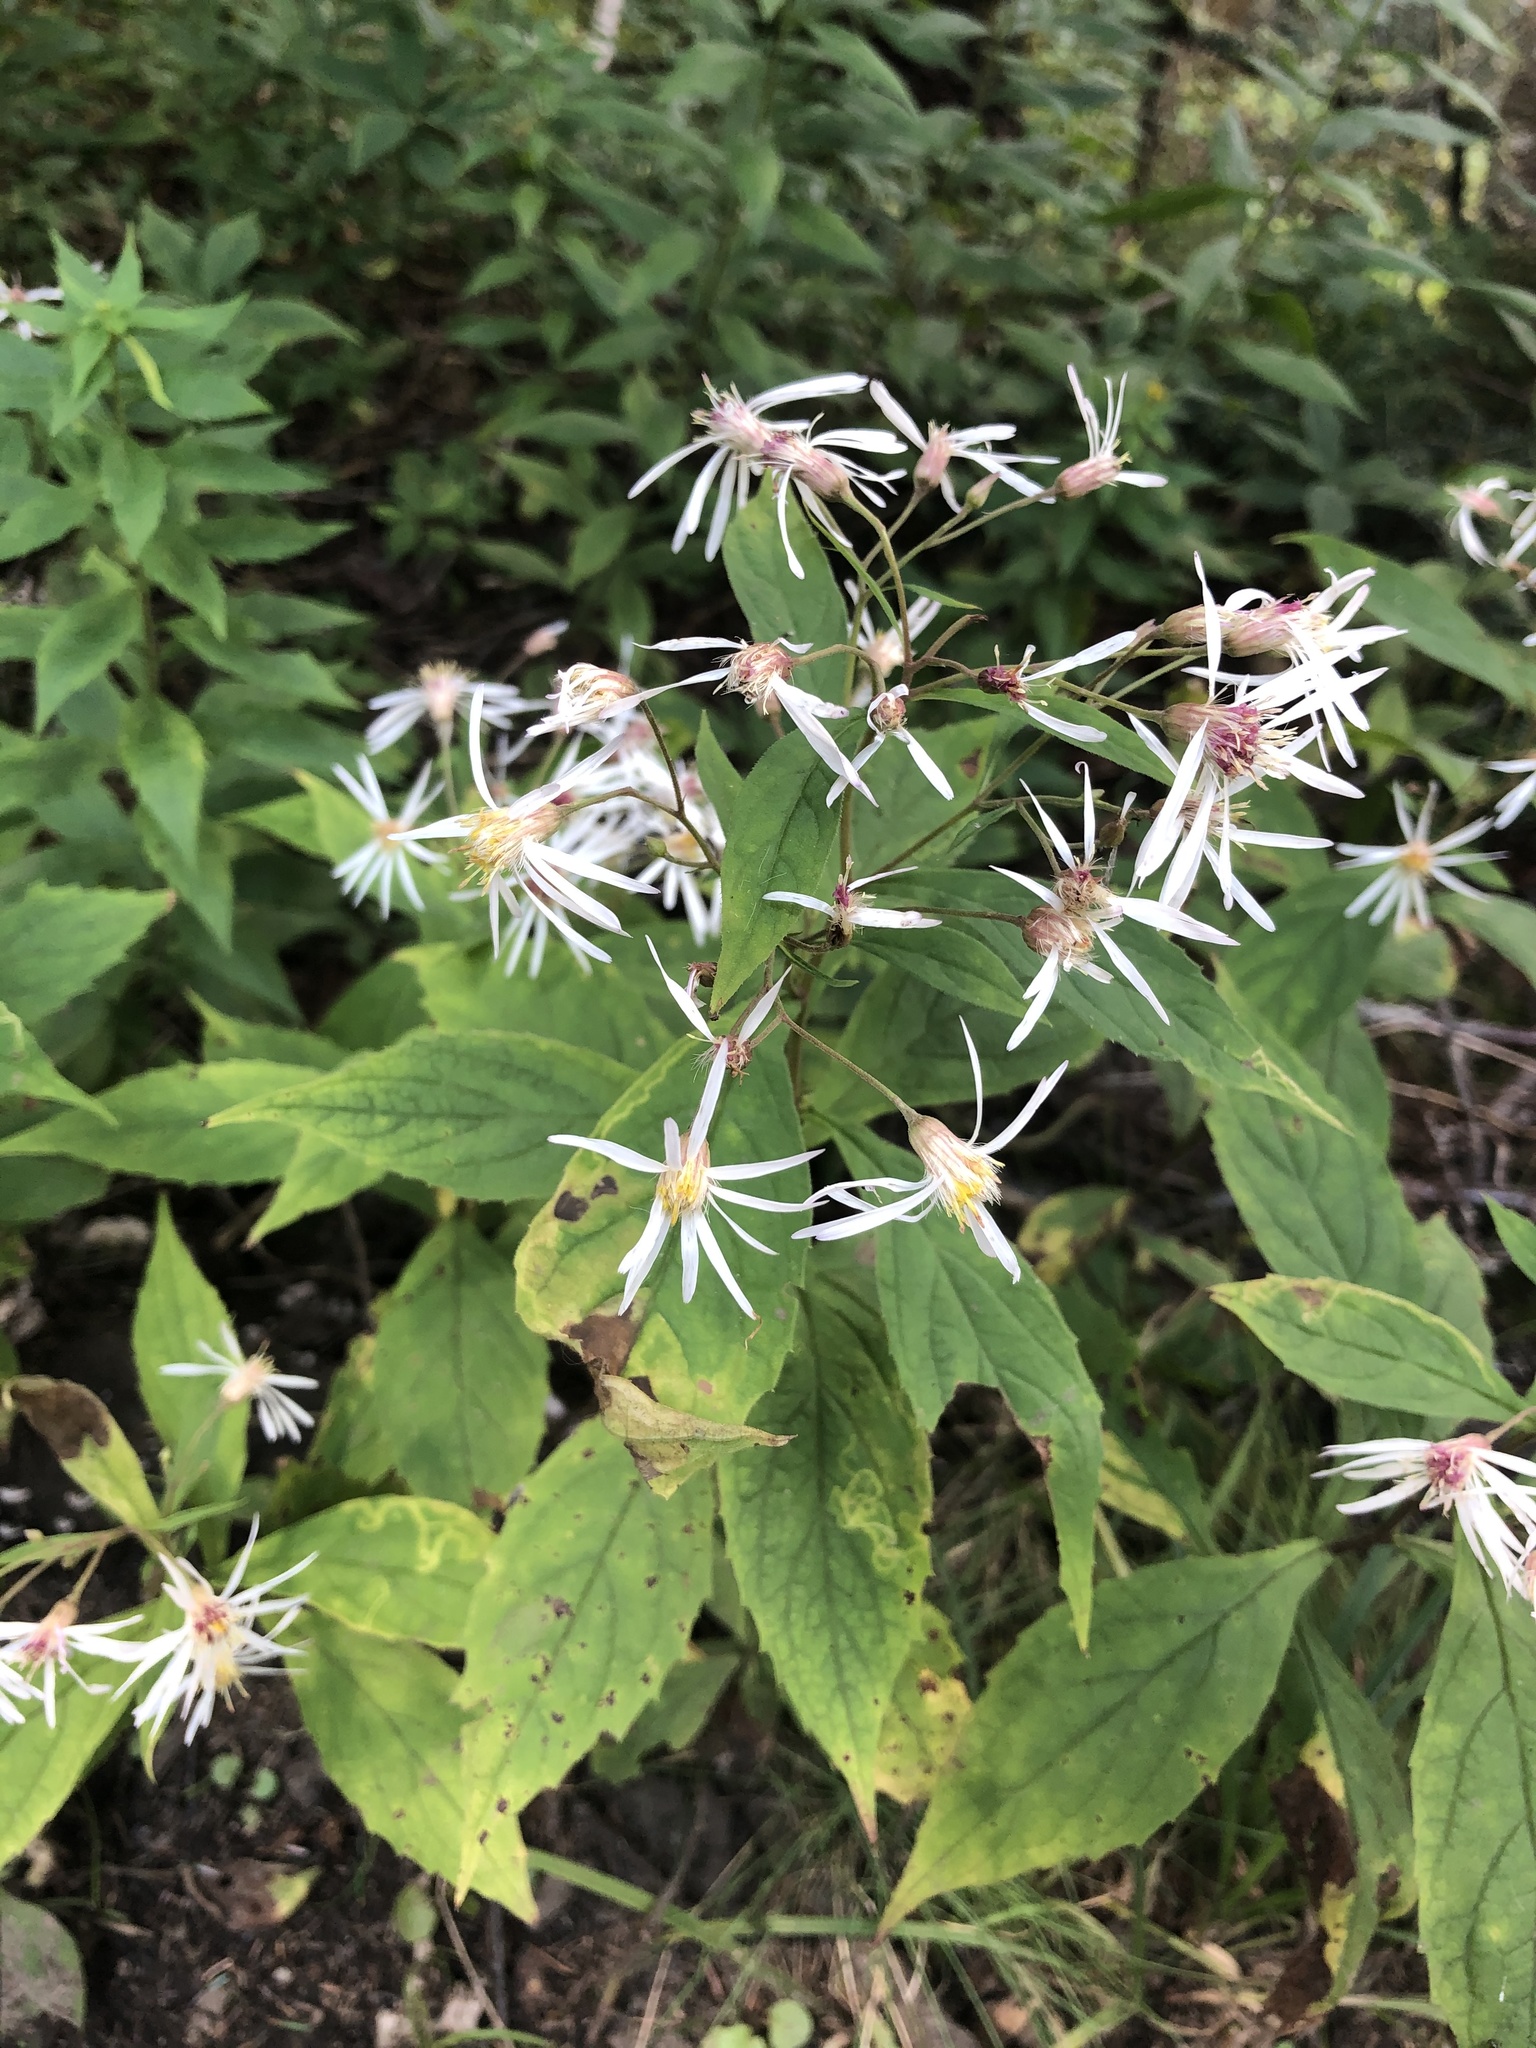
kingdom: Plantae
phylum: Tracheophyta
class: Magnoliopsida
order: Asterales
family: Asteraceae
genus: Oclemena
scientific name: Oclemena acuminata
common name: Mountain aster
